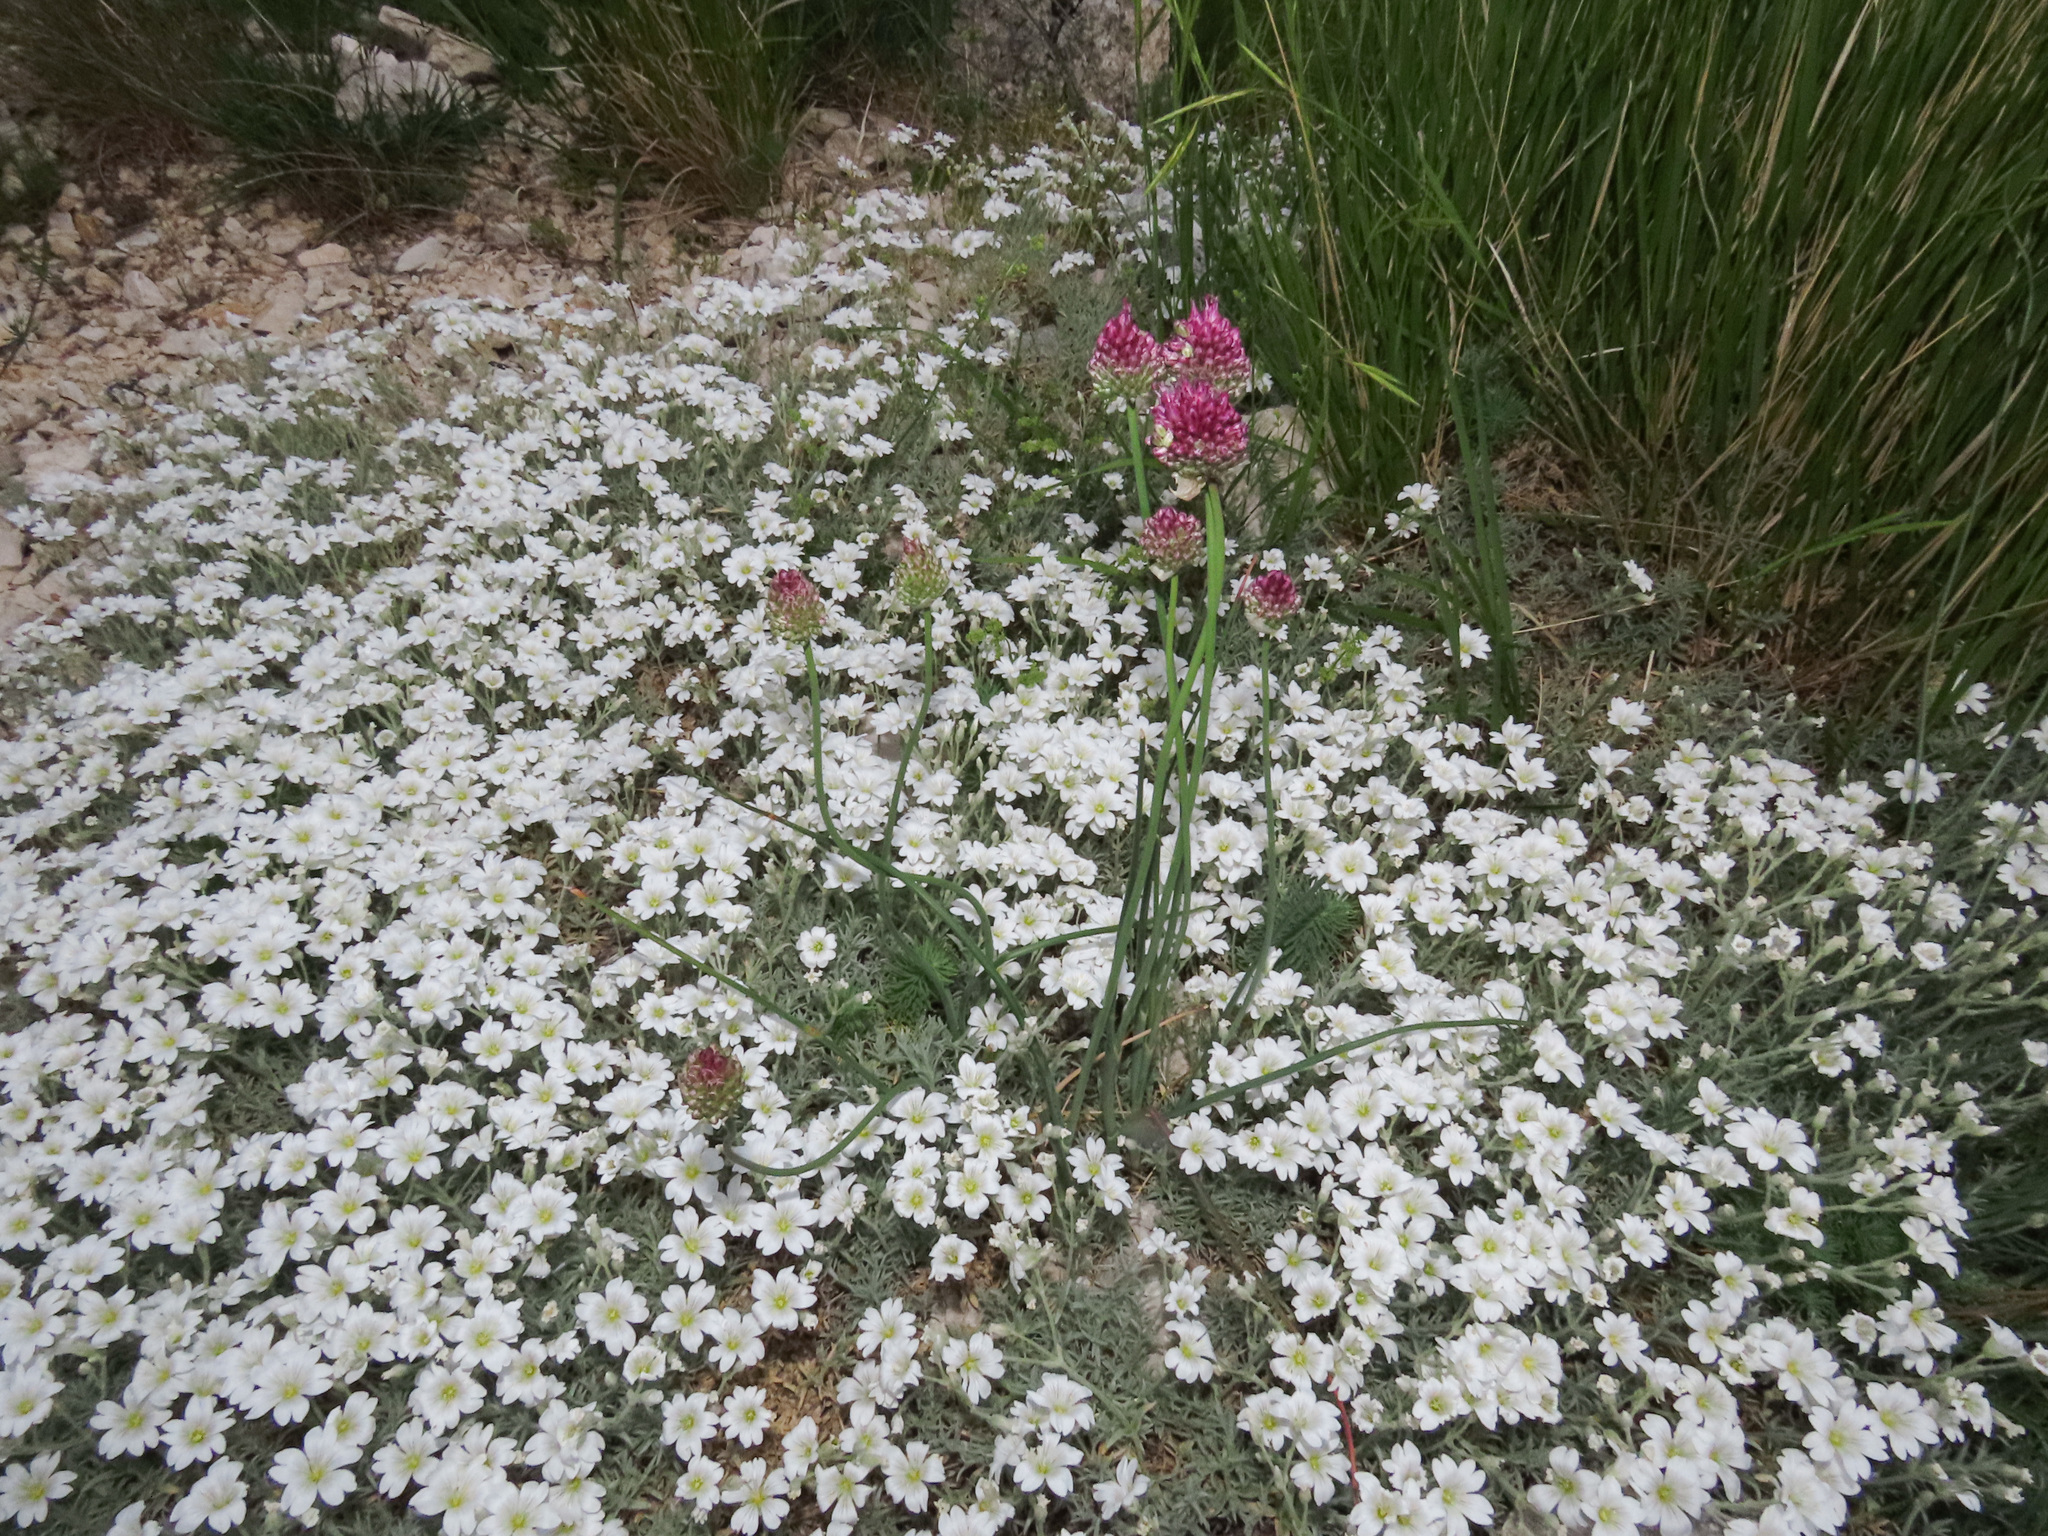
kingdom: Plantae
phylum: Tracheophyta
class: Liliopsida
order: Asparagales
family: Amaryllidaceae
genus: Allium
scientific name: Allium sphaerocephalon
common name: Round-headed leek
